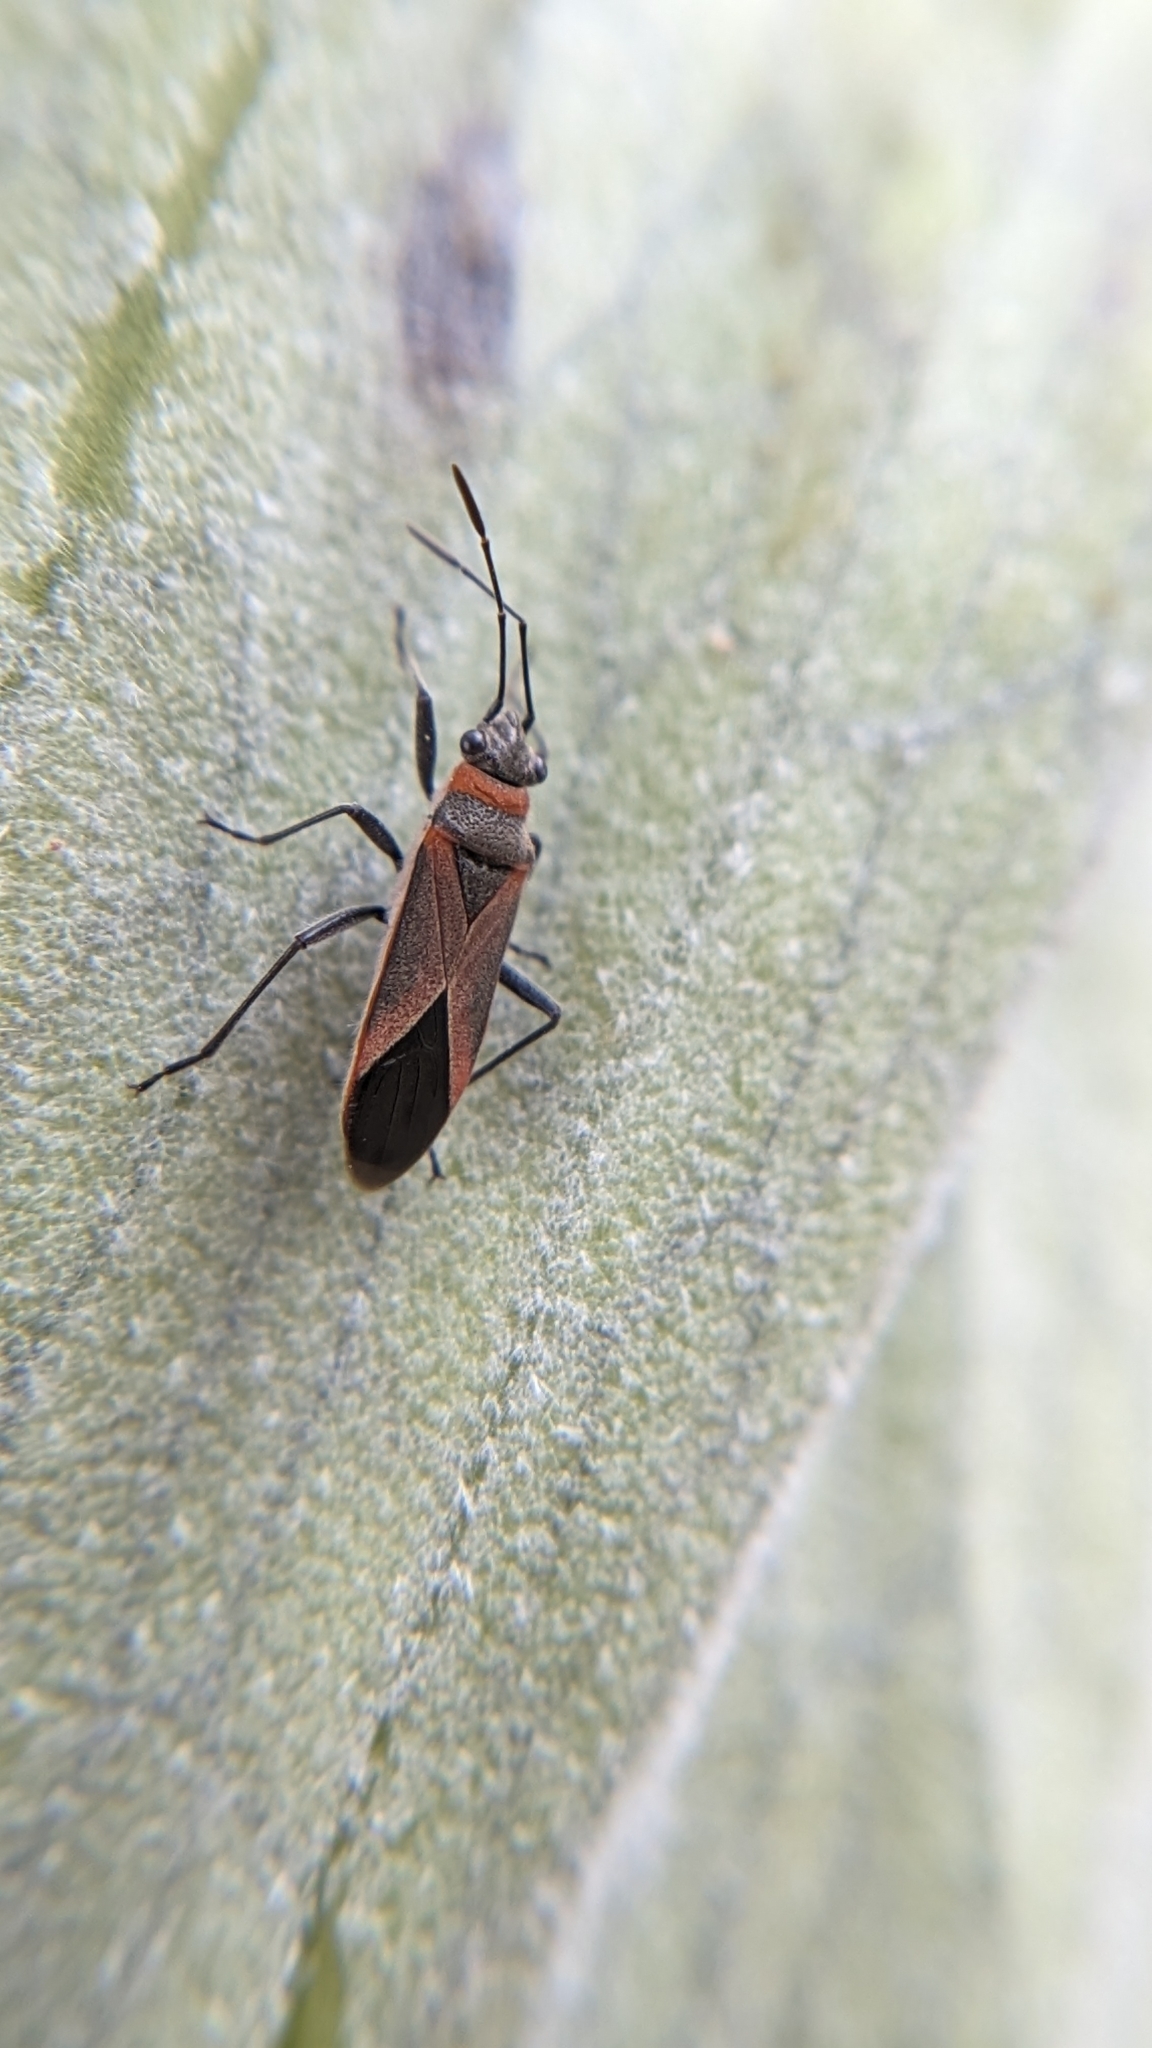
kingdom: Animalia
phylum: Arthropoda
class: Insecta
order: Hemiptera
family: Lygaeidae
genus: Arocatus
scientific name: Arocatus rusticus
